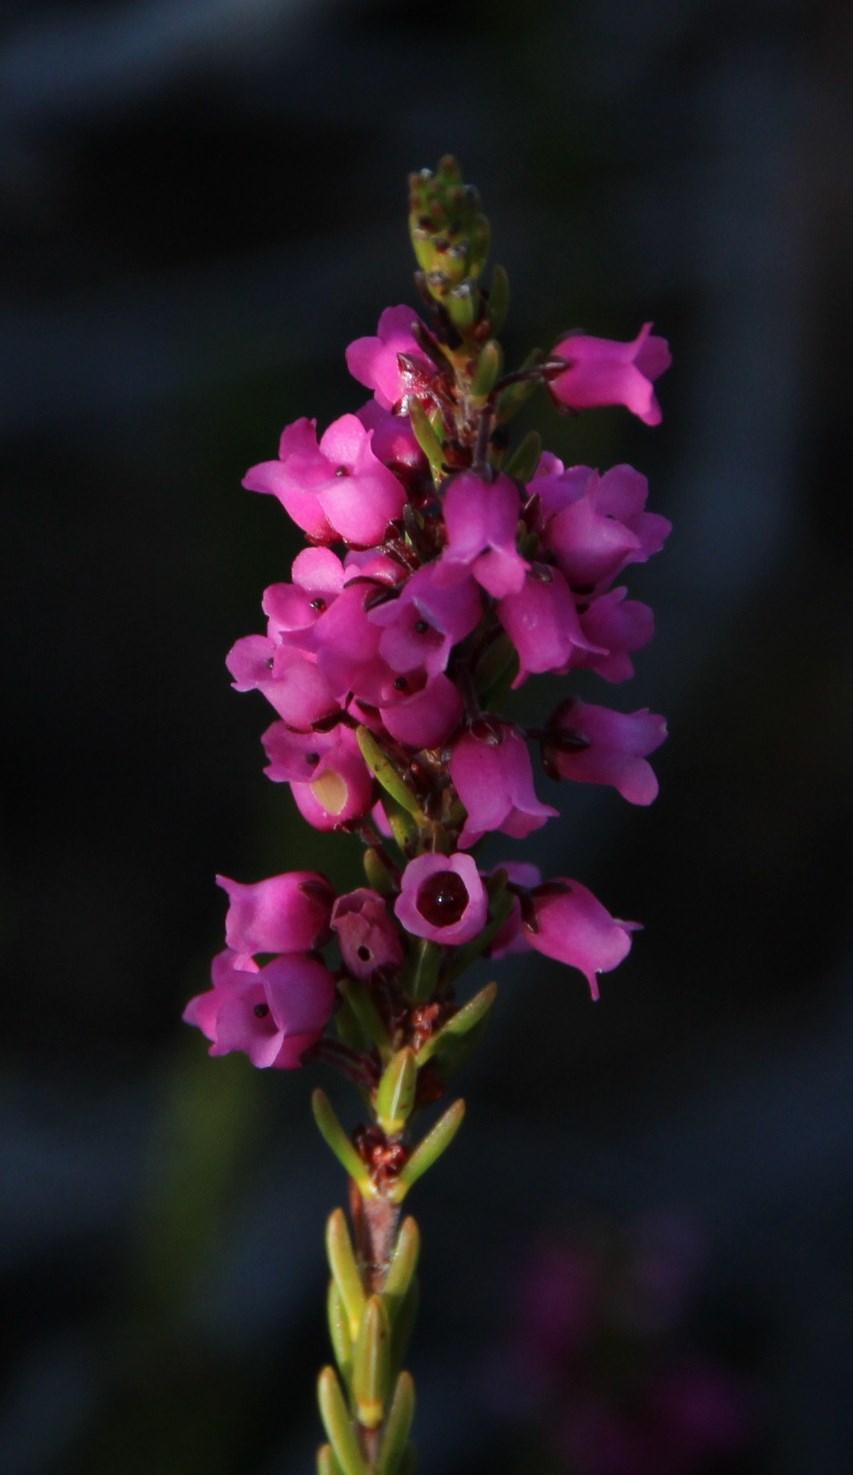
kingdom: Plantae
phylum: Tracheophyta
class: Magnoliopsida
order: Ericales
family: Ericaceae
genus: Erica
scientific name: Erica pulchella
